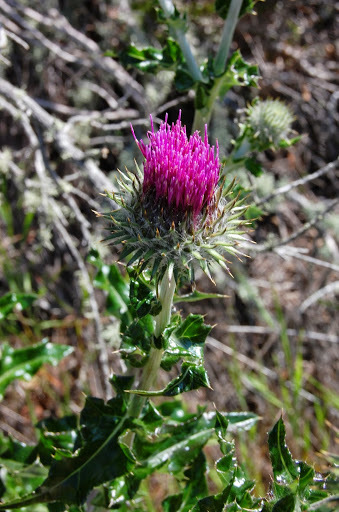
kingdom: Plantae
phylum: Tracheophyta
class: Magnoliopsida
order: Asterales
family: Asteraceae
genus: Cirsium
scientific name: Cirsium occidentale
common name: Western thistle
